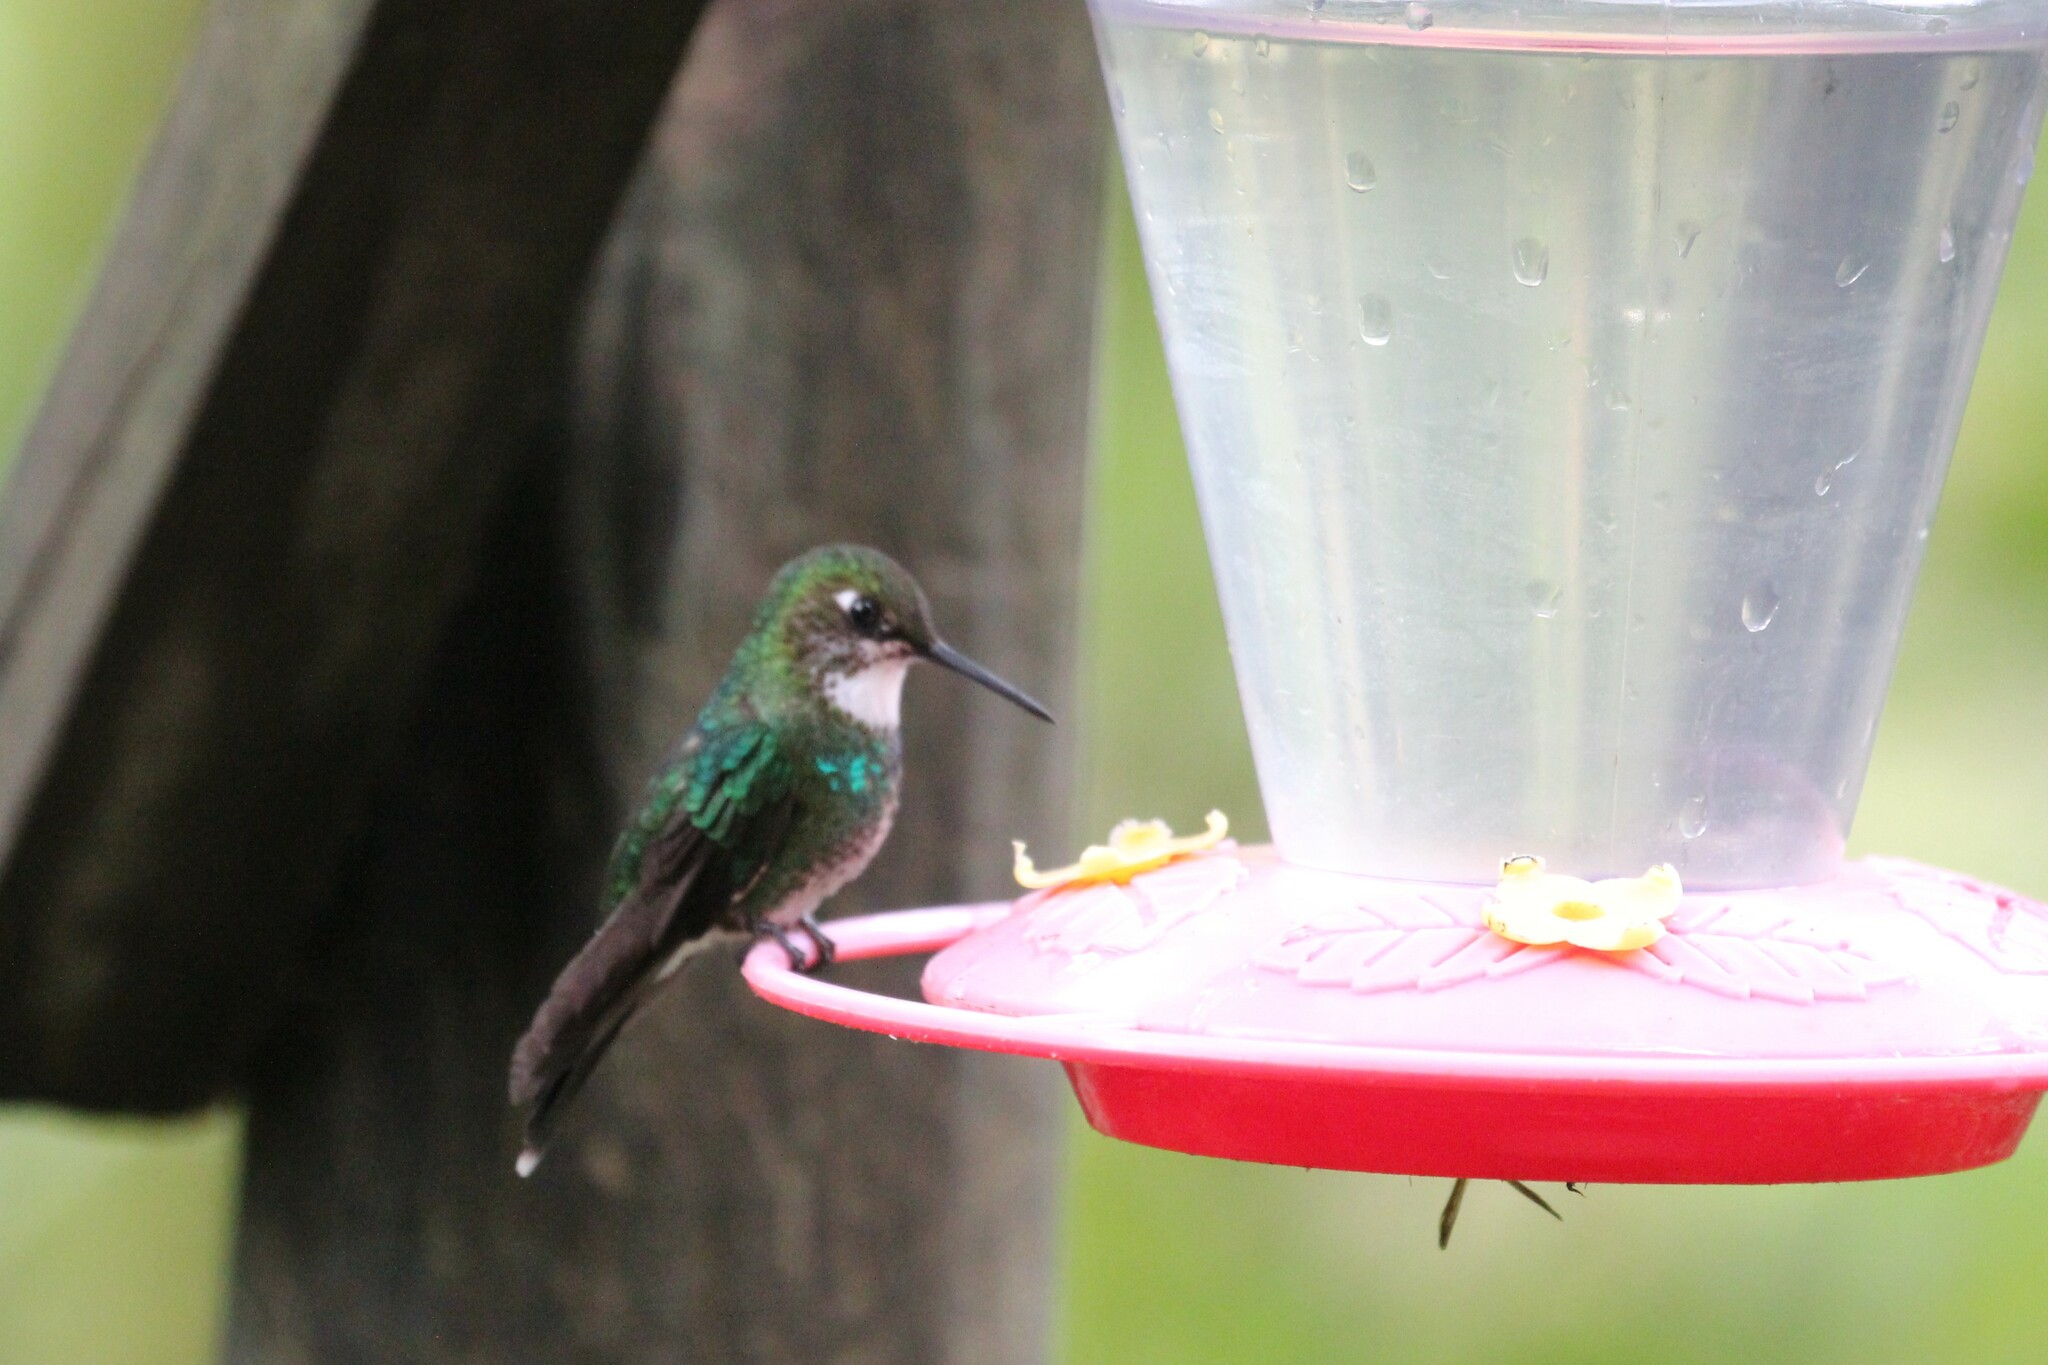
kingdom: Animalia
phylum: Chordata
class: Aves
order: Apodiformes
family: Trochilidae
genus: Heliangelus
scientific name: Heliangelus exortis
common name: Tourmaline sunangel
